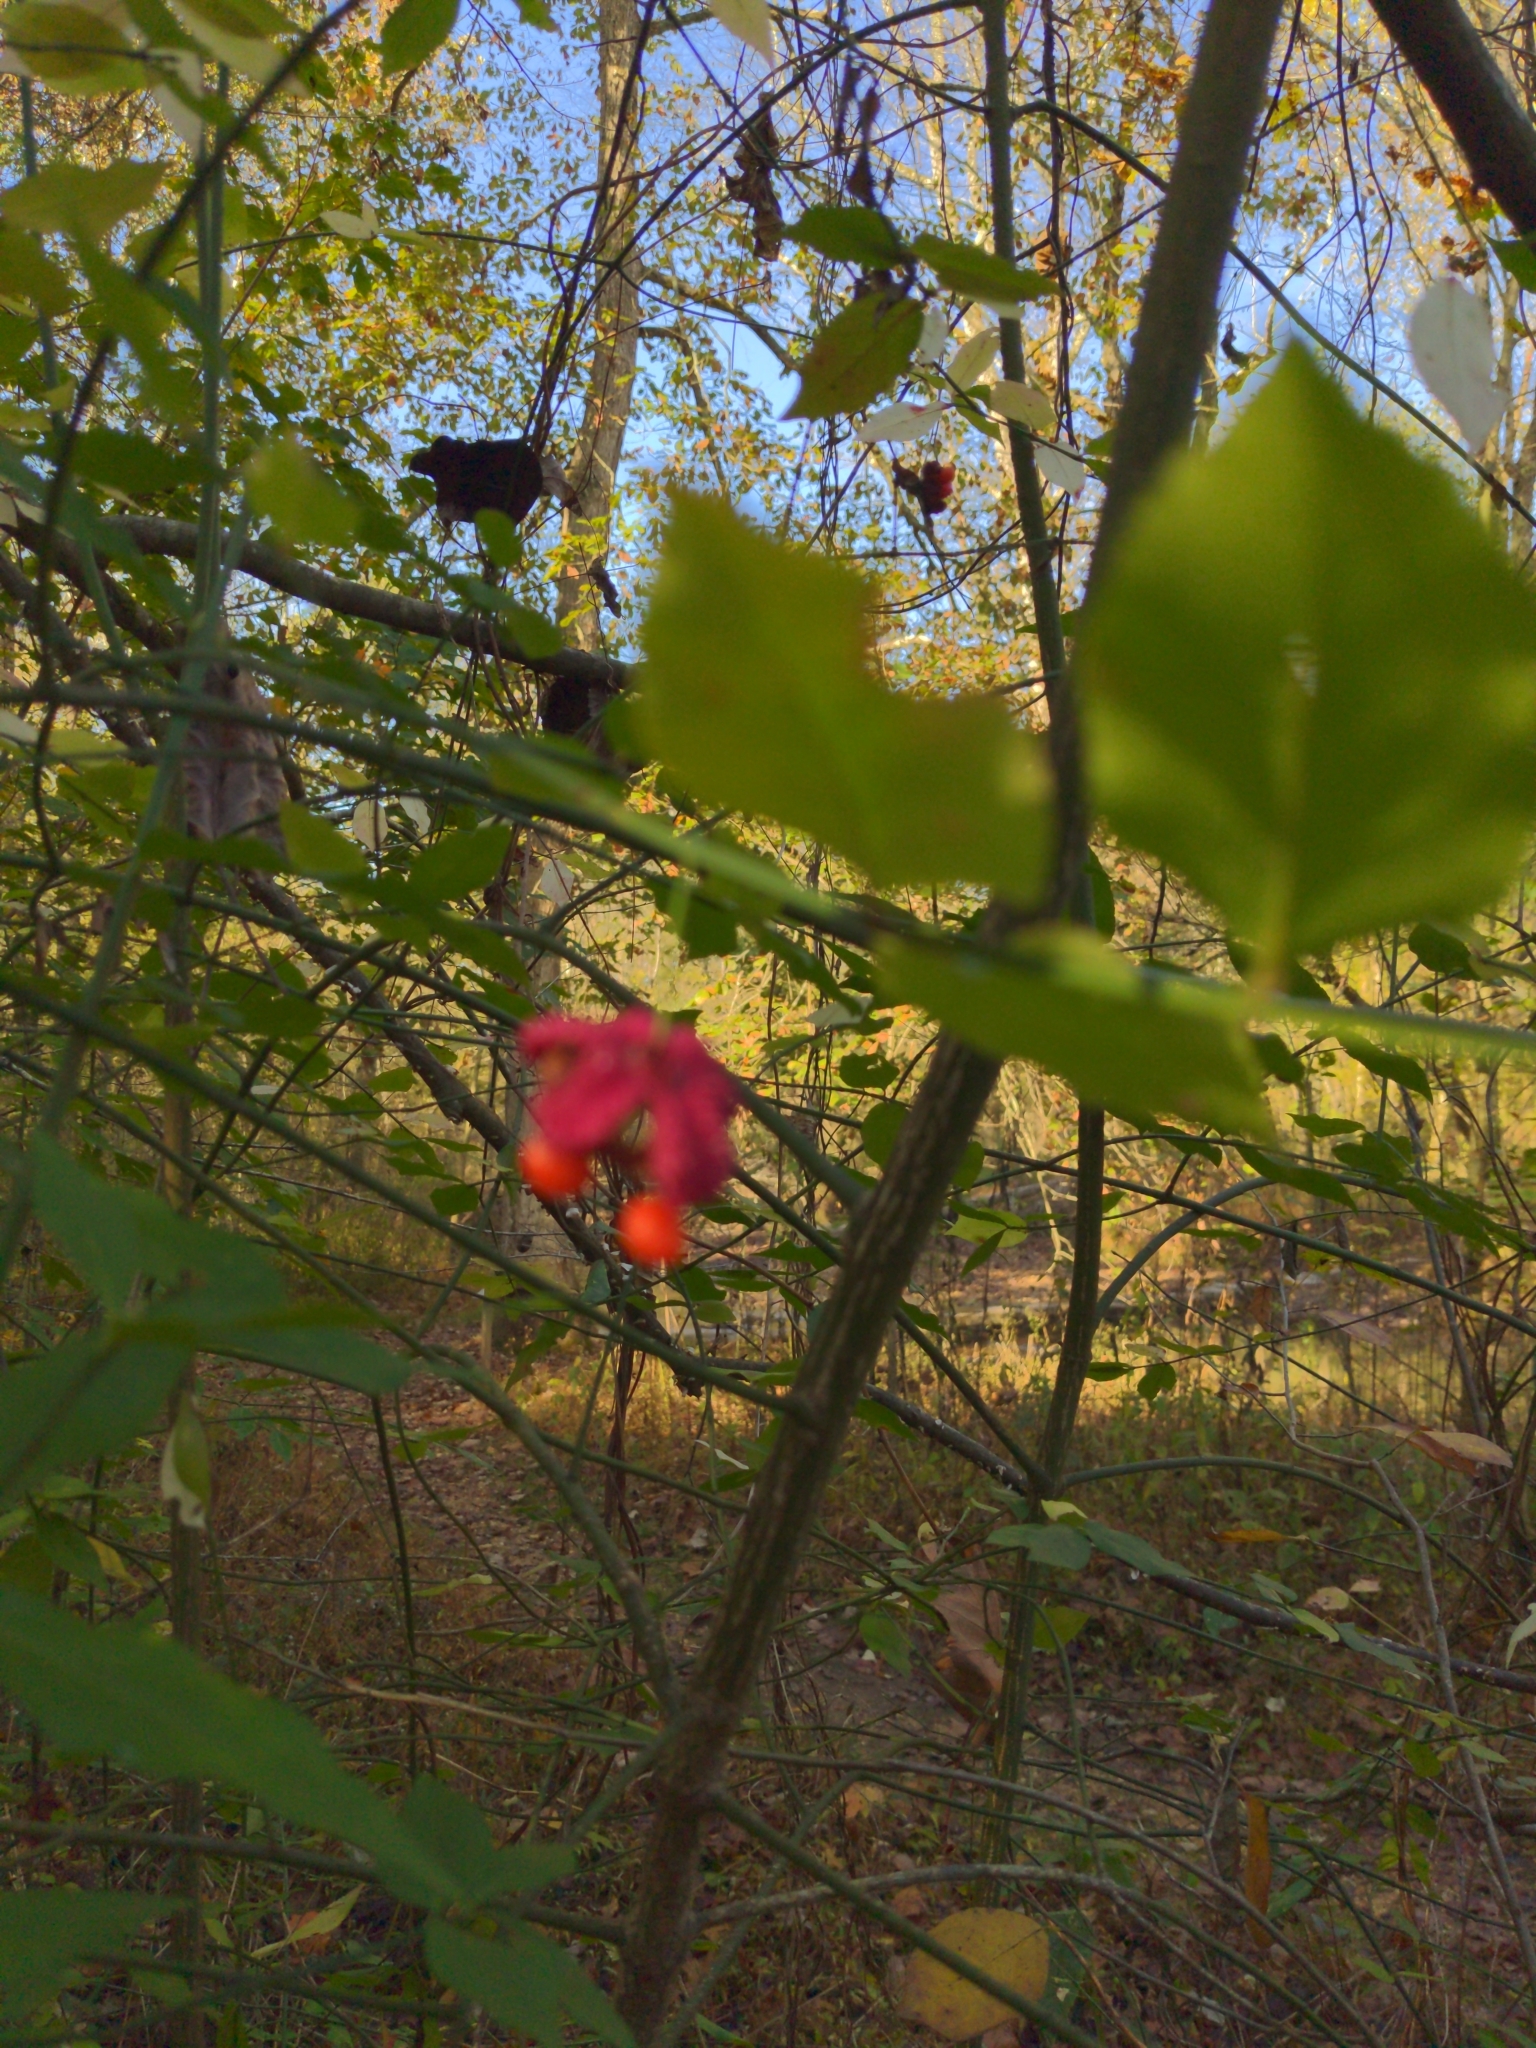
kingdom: Plantae
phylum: Tracheophyta
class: Magnoliopsida
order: Celastrales
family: Celastraceae
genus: Euonymus
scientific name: Euonymus americanus
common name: Bursting-heart
